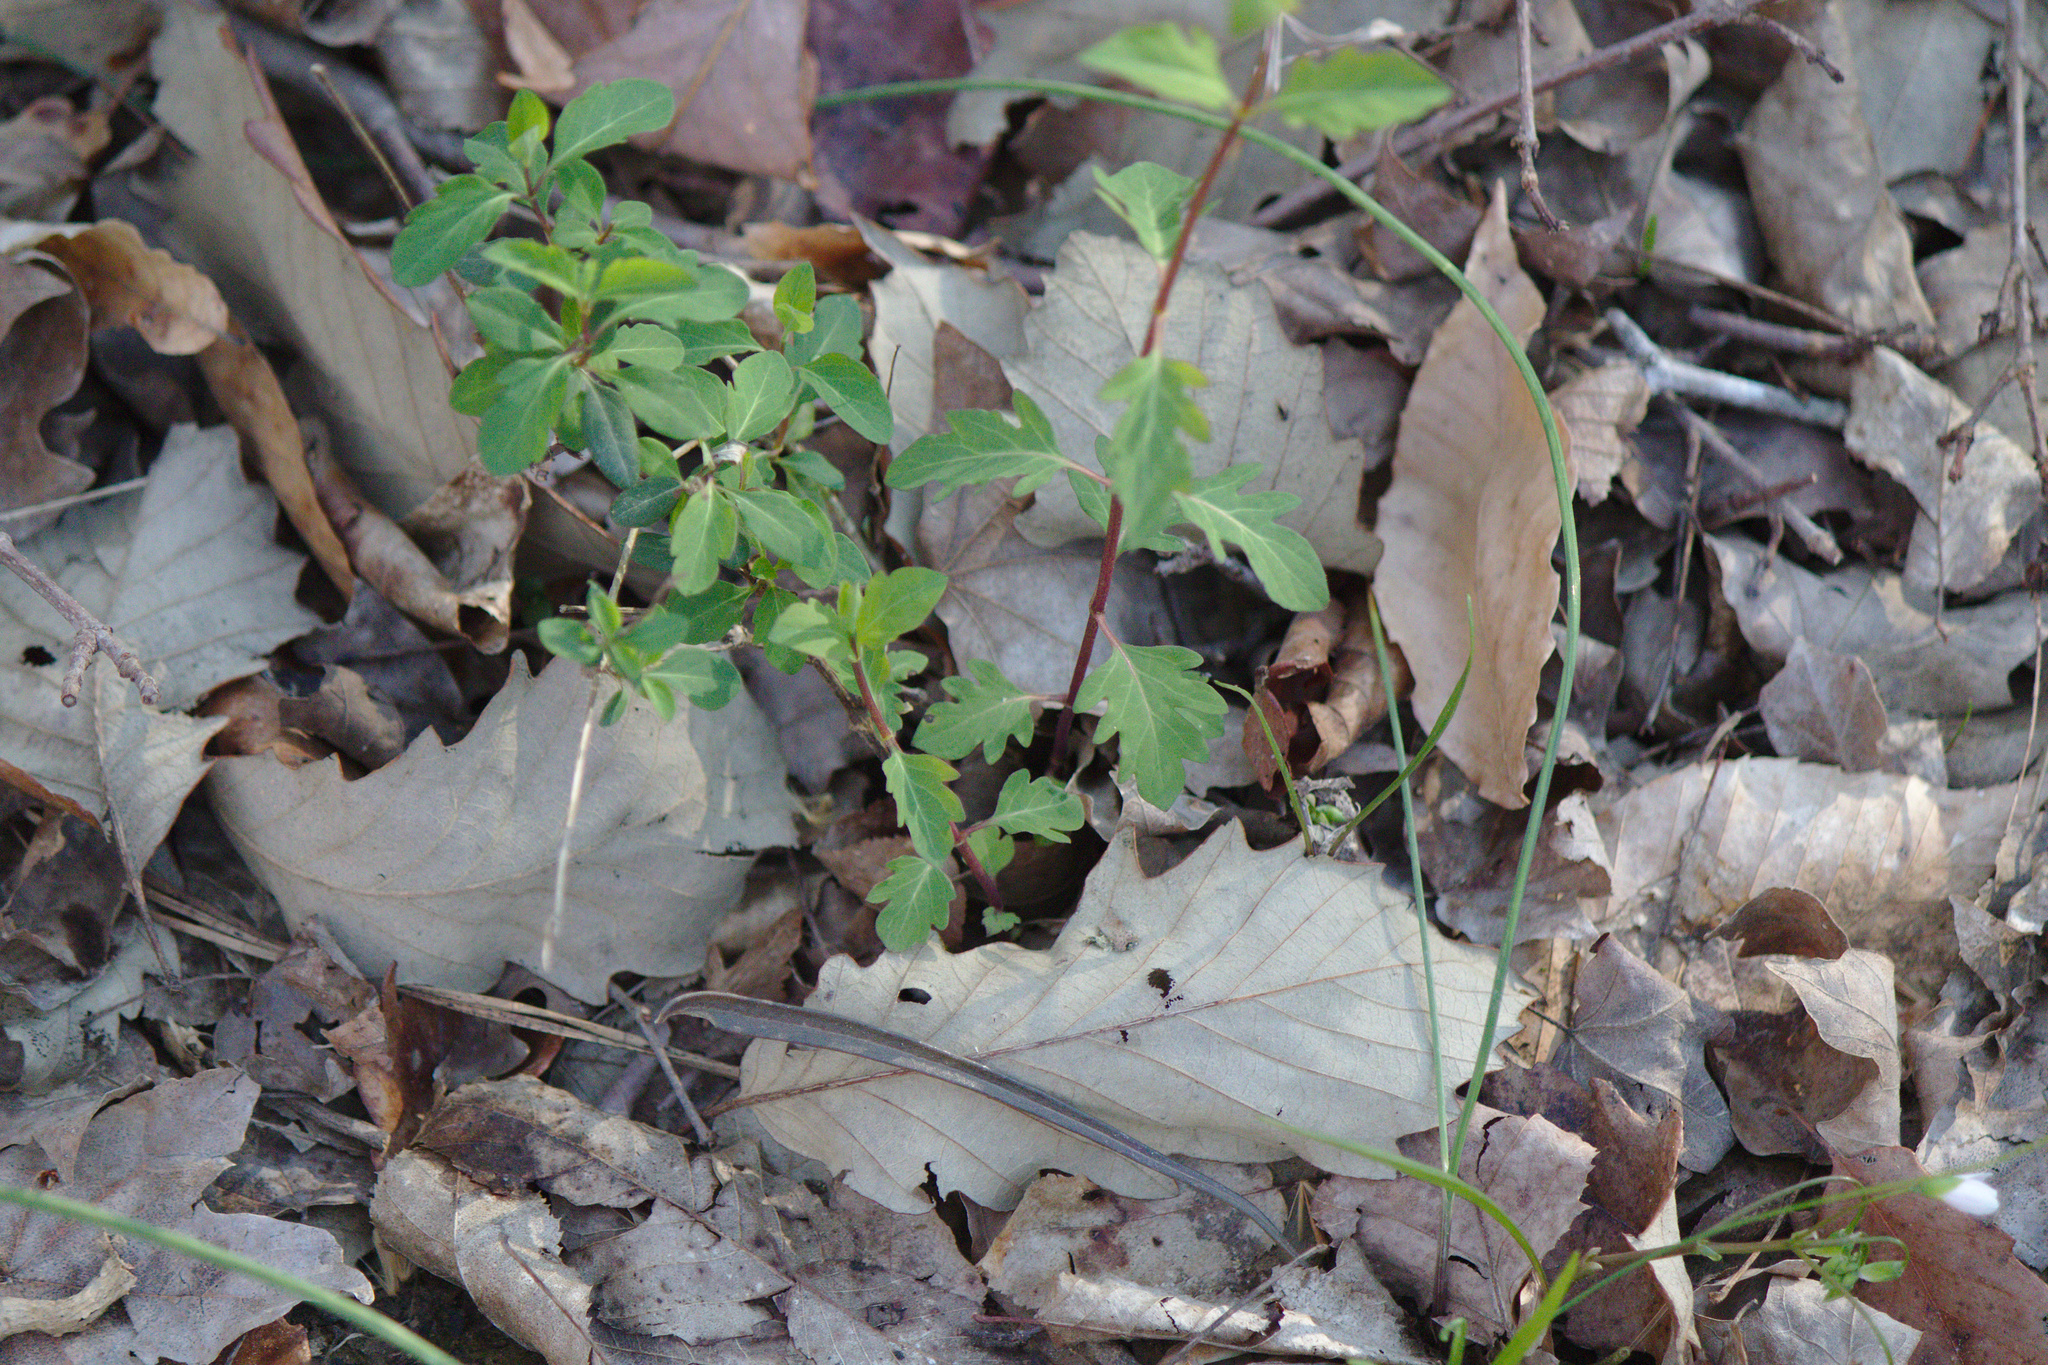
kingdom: Plantae
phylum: Tracheophyta
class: Magnoliopsida
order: Dipsacales
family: Caprifoliaceae
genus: Lonicera
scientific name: Lonicera japonica
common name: Japanese honeysuckle
